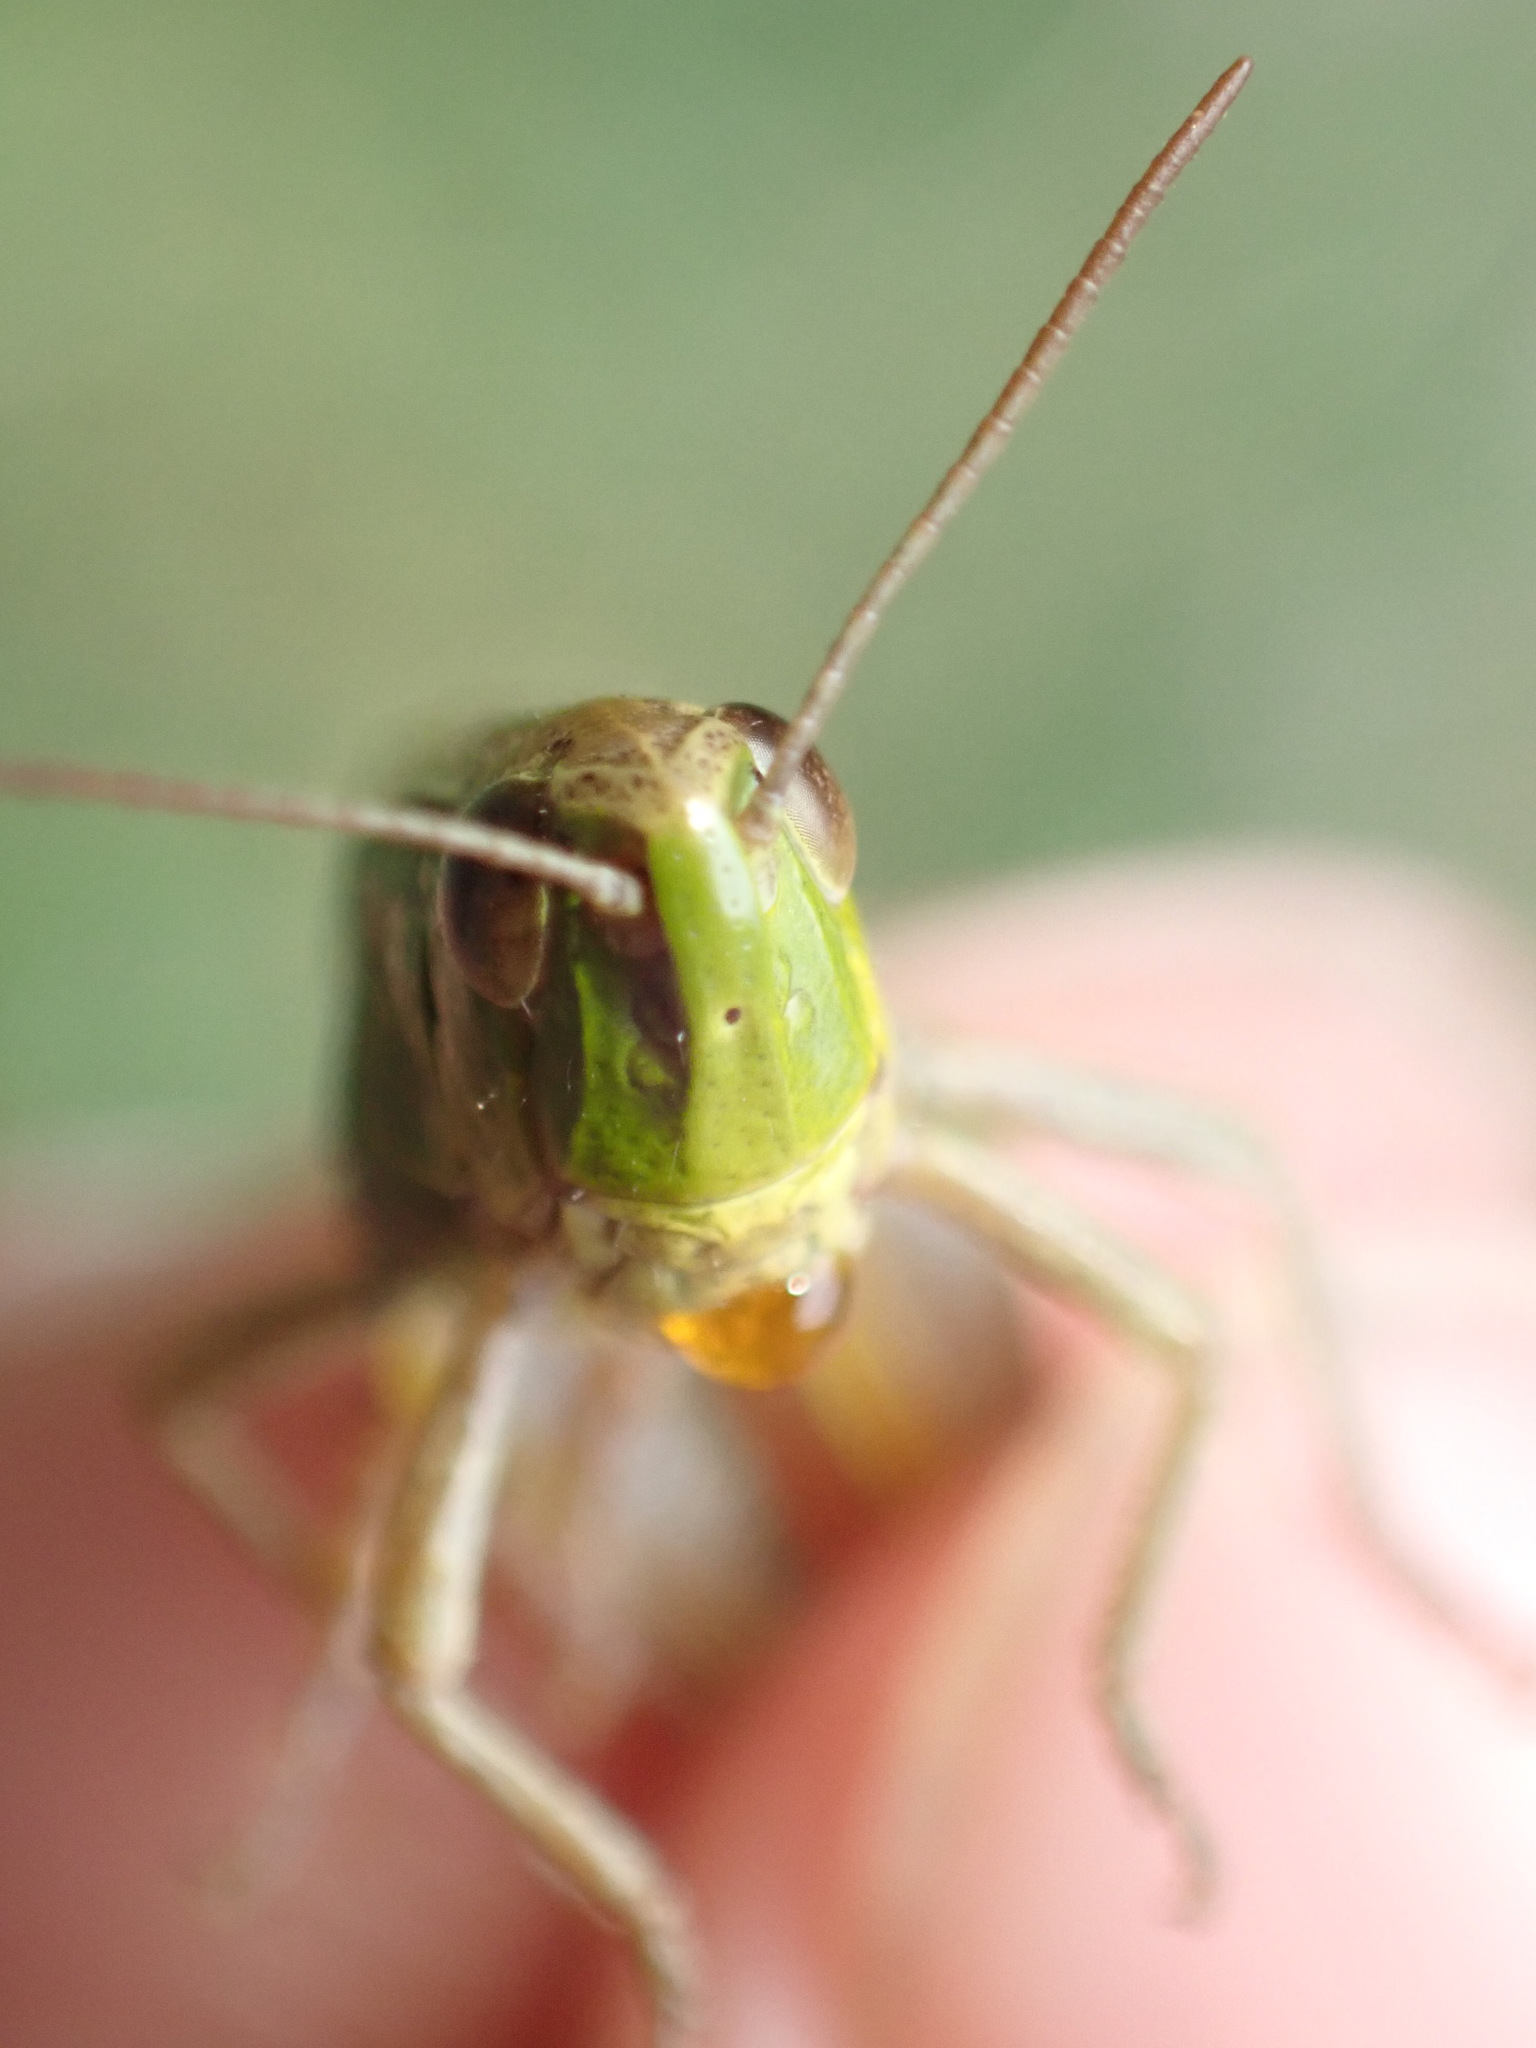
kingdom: Animalia
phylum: Arthropoda
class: Insecta
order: Orthoptera
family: Acrididae
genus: Pseudochorthippus
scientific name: Pseudochorthippus parallelus
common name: Meadow grasshopper
